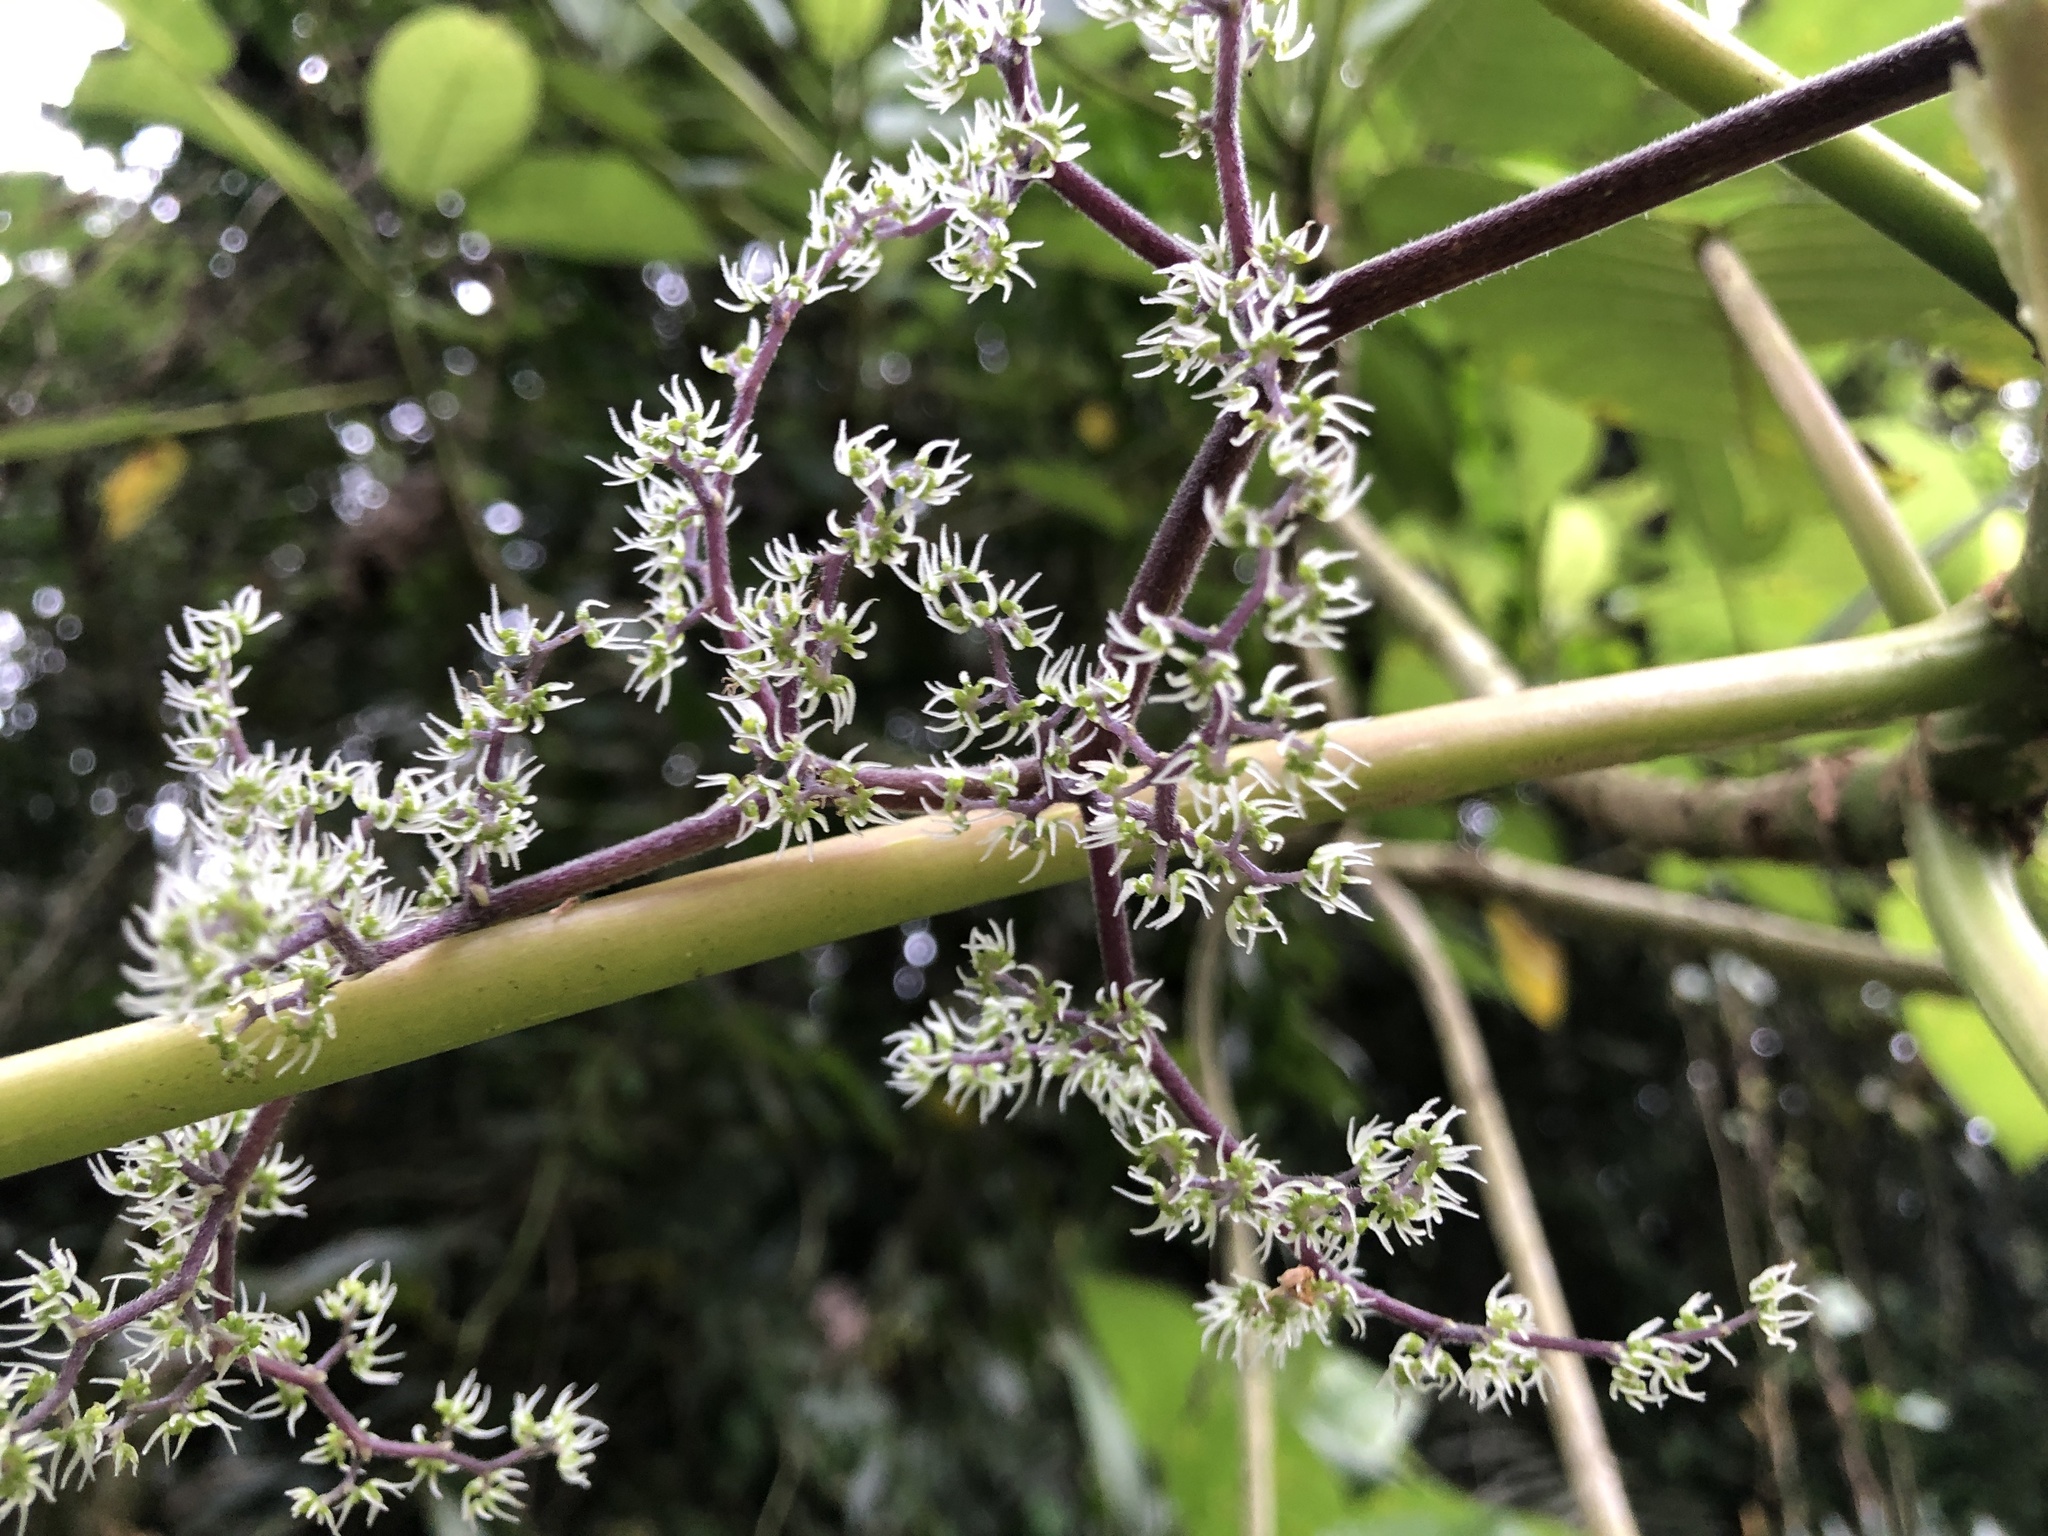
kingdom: Plantae
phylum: Tracheophyta
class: Magnoliopsida
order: Rosales
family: Urticaceae
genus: Dendrocnide
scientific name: Dendrocnide meyeniana
